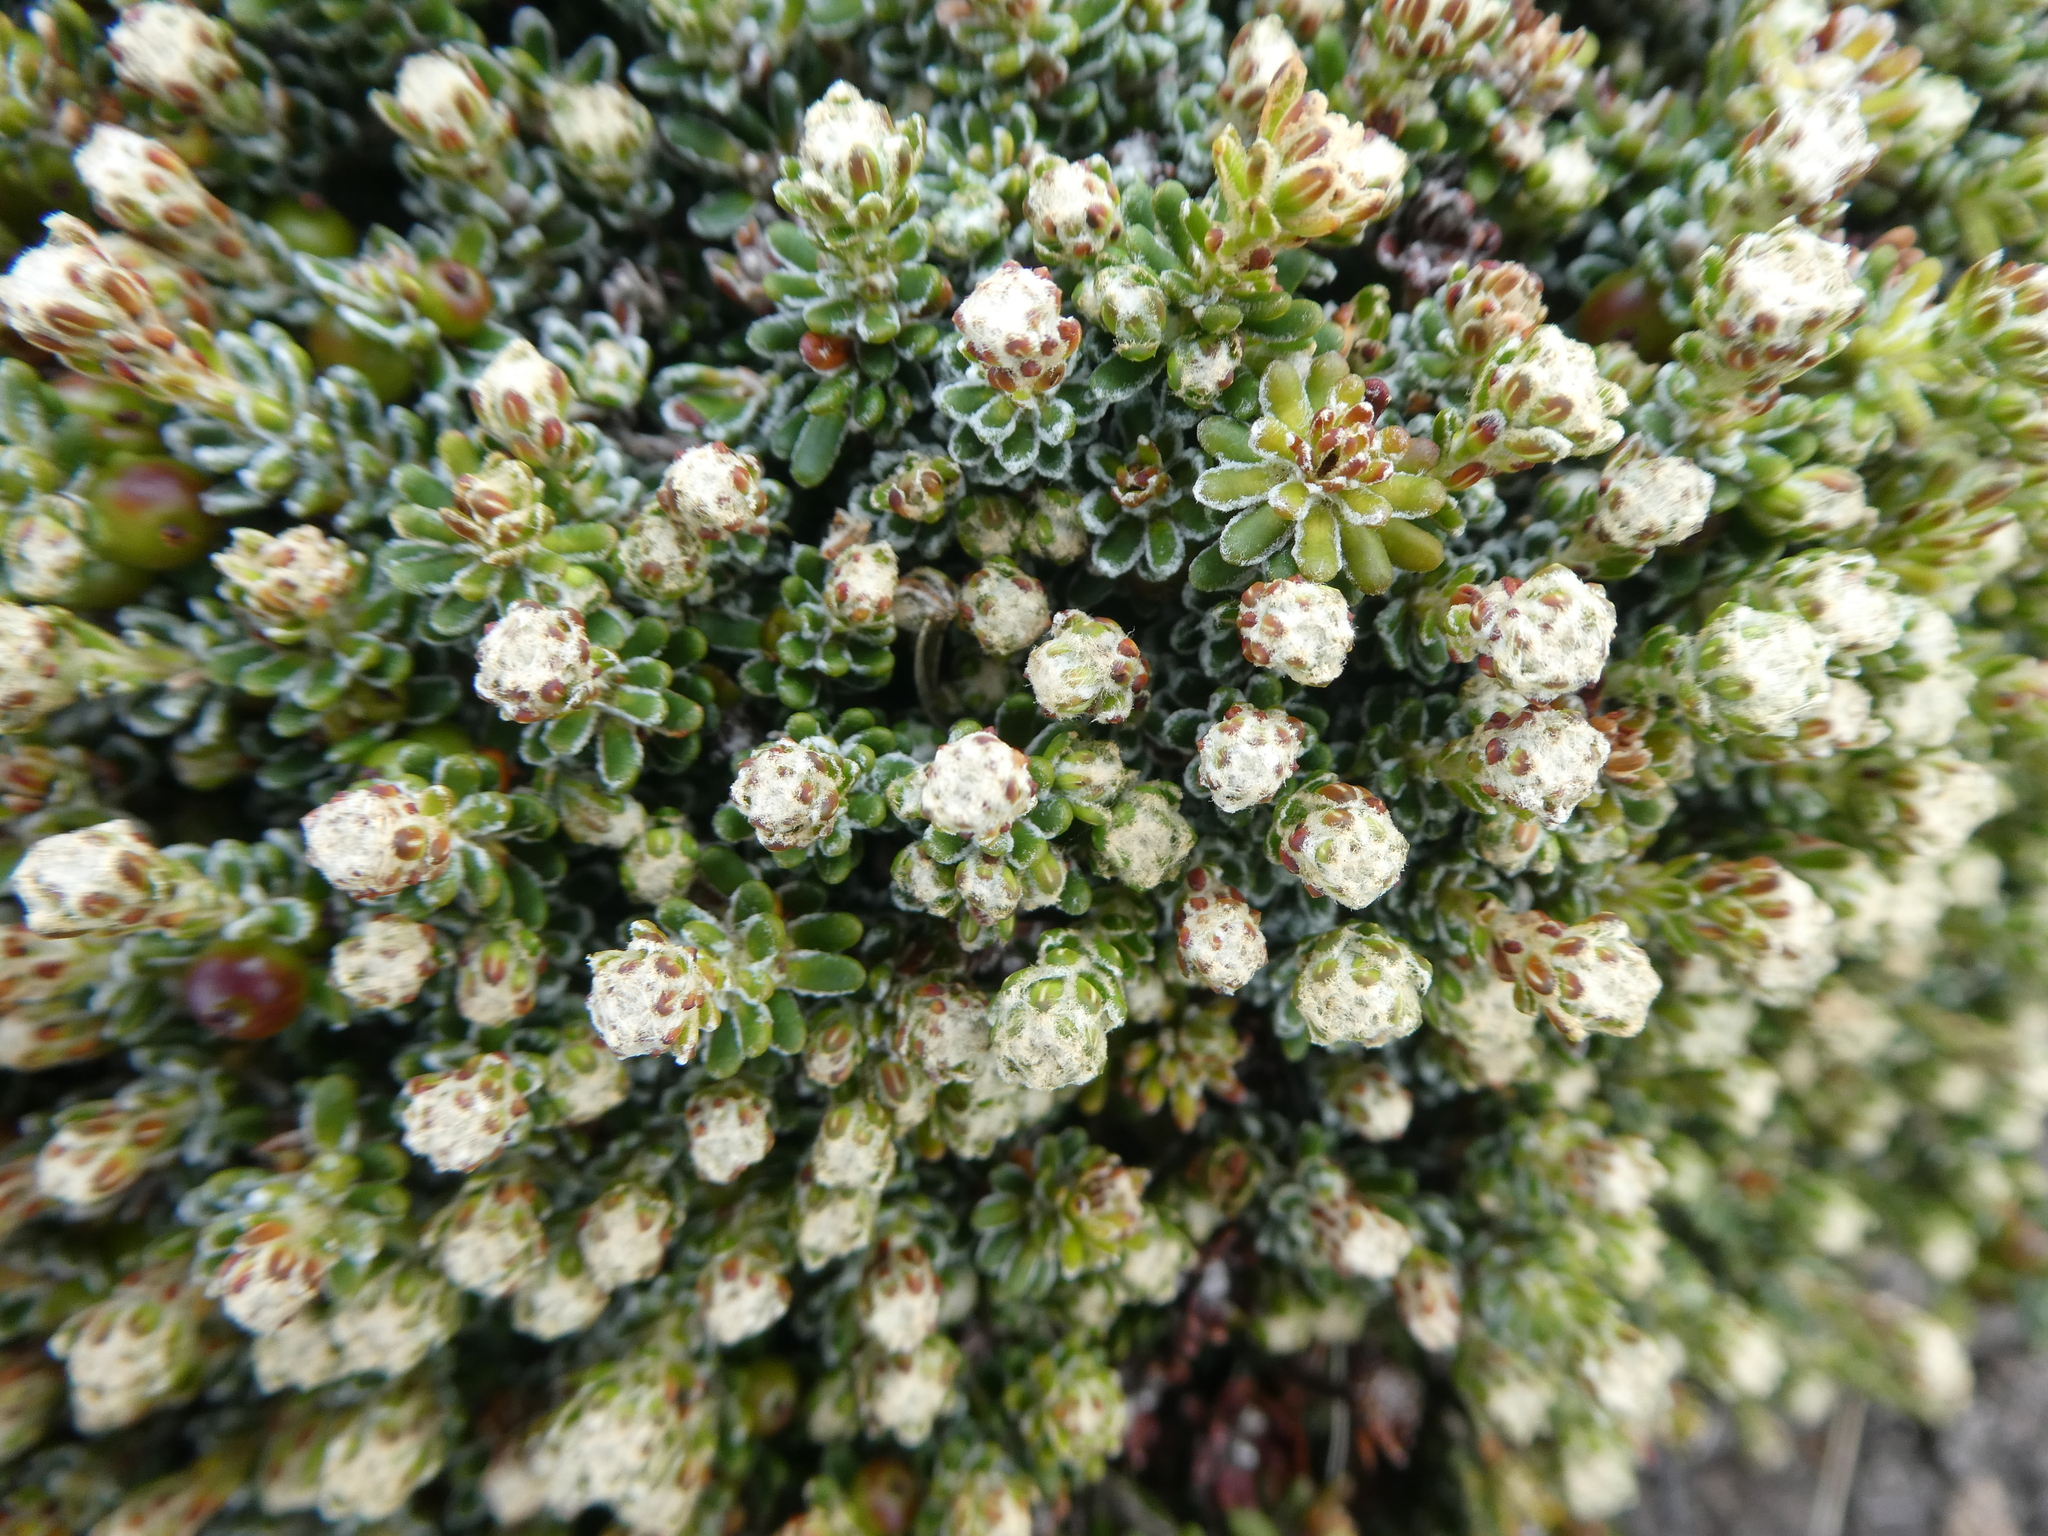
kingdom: Plantae
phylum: Tracheophyta
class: Magnoliopsida
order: Ericales
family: Ericaceae
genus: Empetrum
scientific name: Empetrum rubrum
